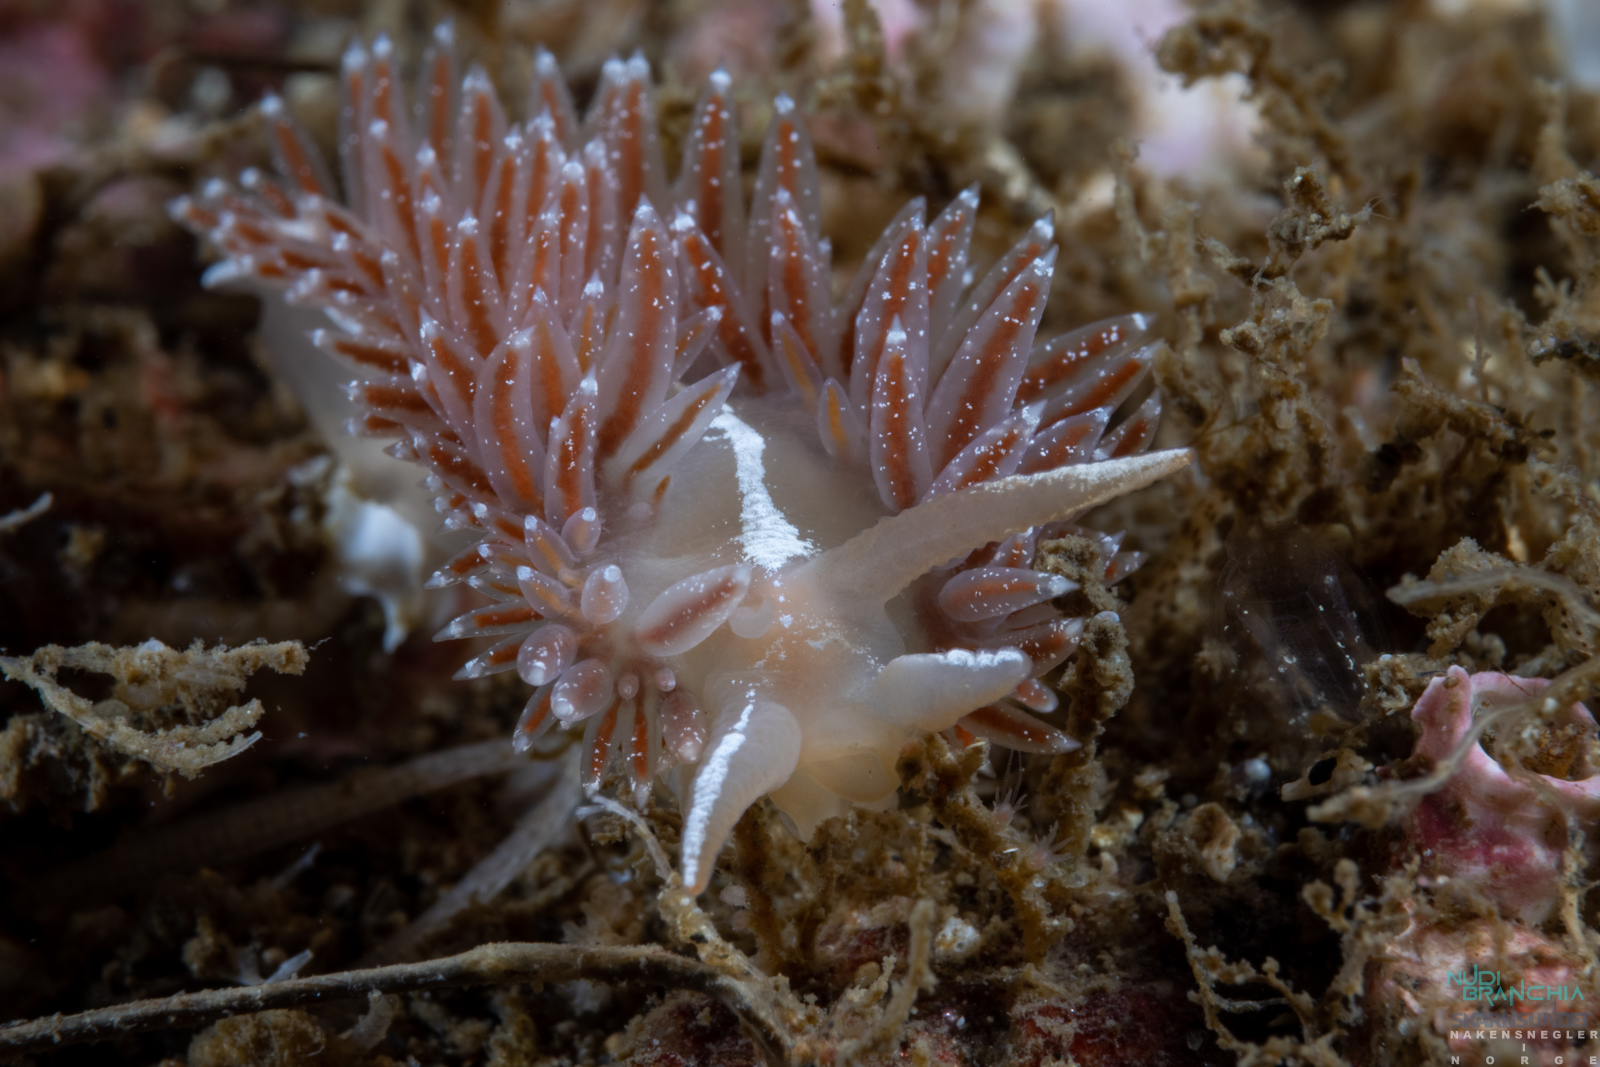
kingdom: Animalia
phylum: Mollusca
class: Gastropoda
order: Nudibranchia
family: Coryphellidae
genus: Coryphella
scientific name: Coryphella orjani
